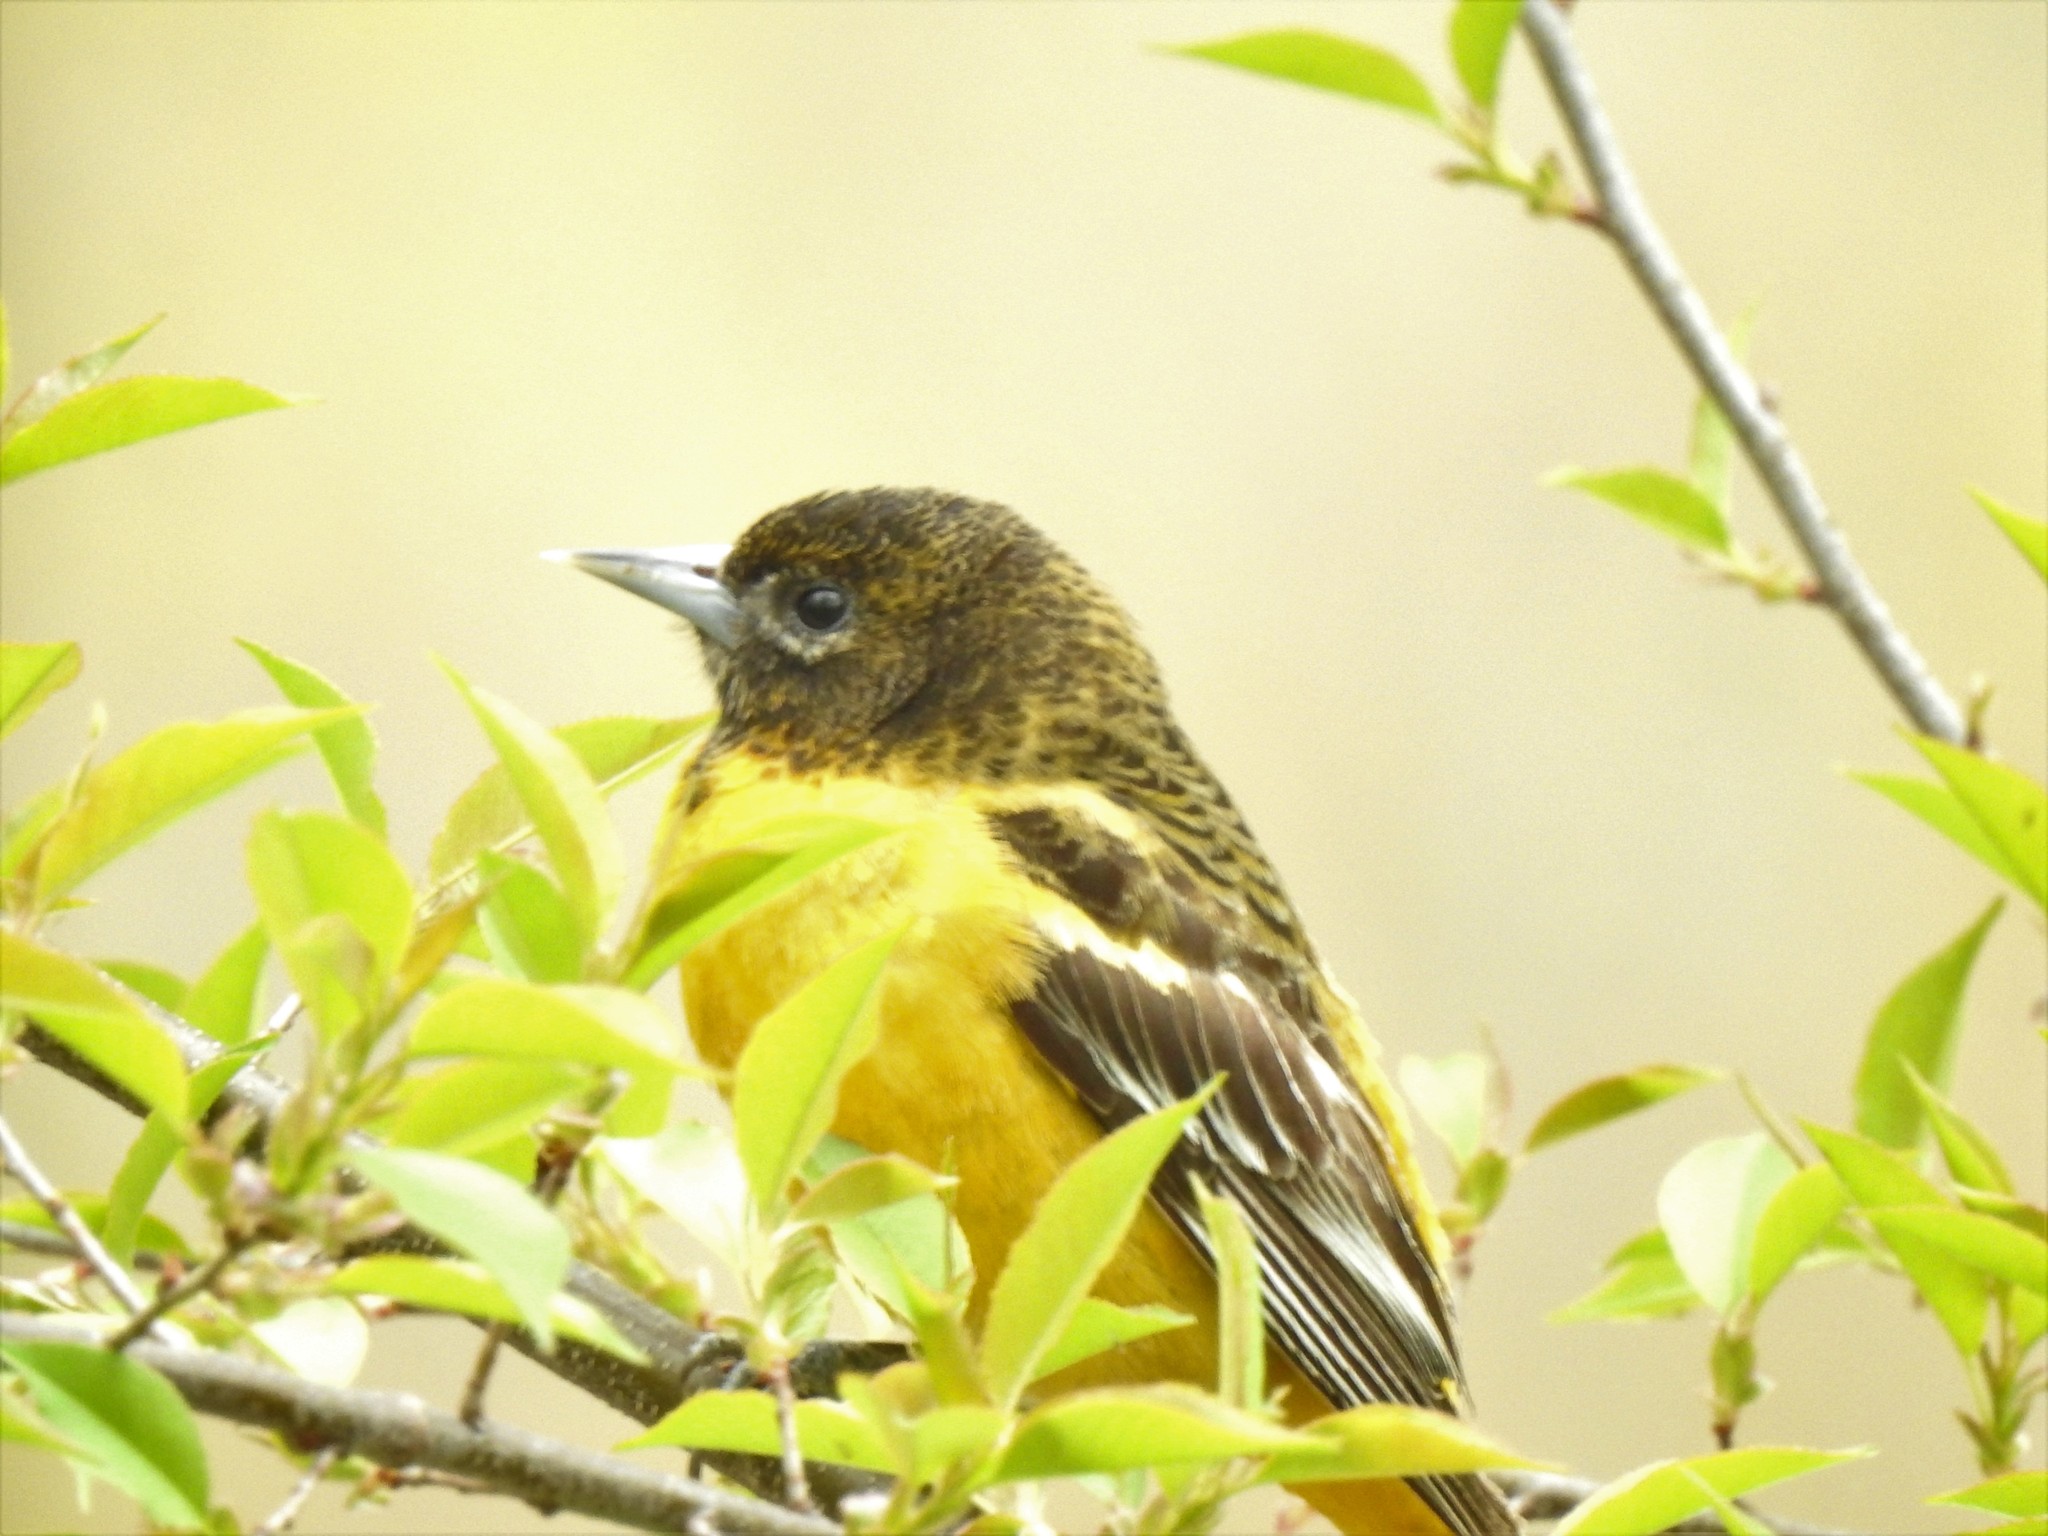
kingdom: Animalia
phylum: Chordata
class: Aves
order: Passeriformes
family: Icteridae
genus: Icterus
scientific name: Icterus galbula
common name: Baltimore oriole
